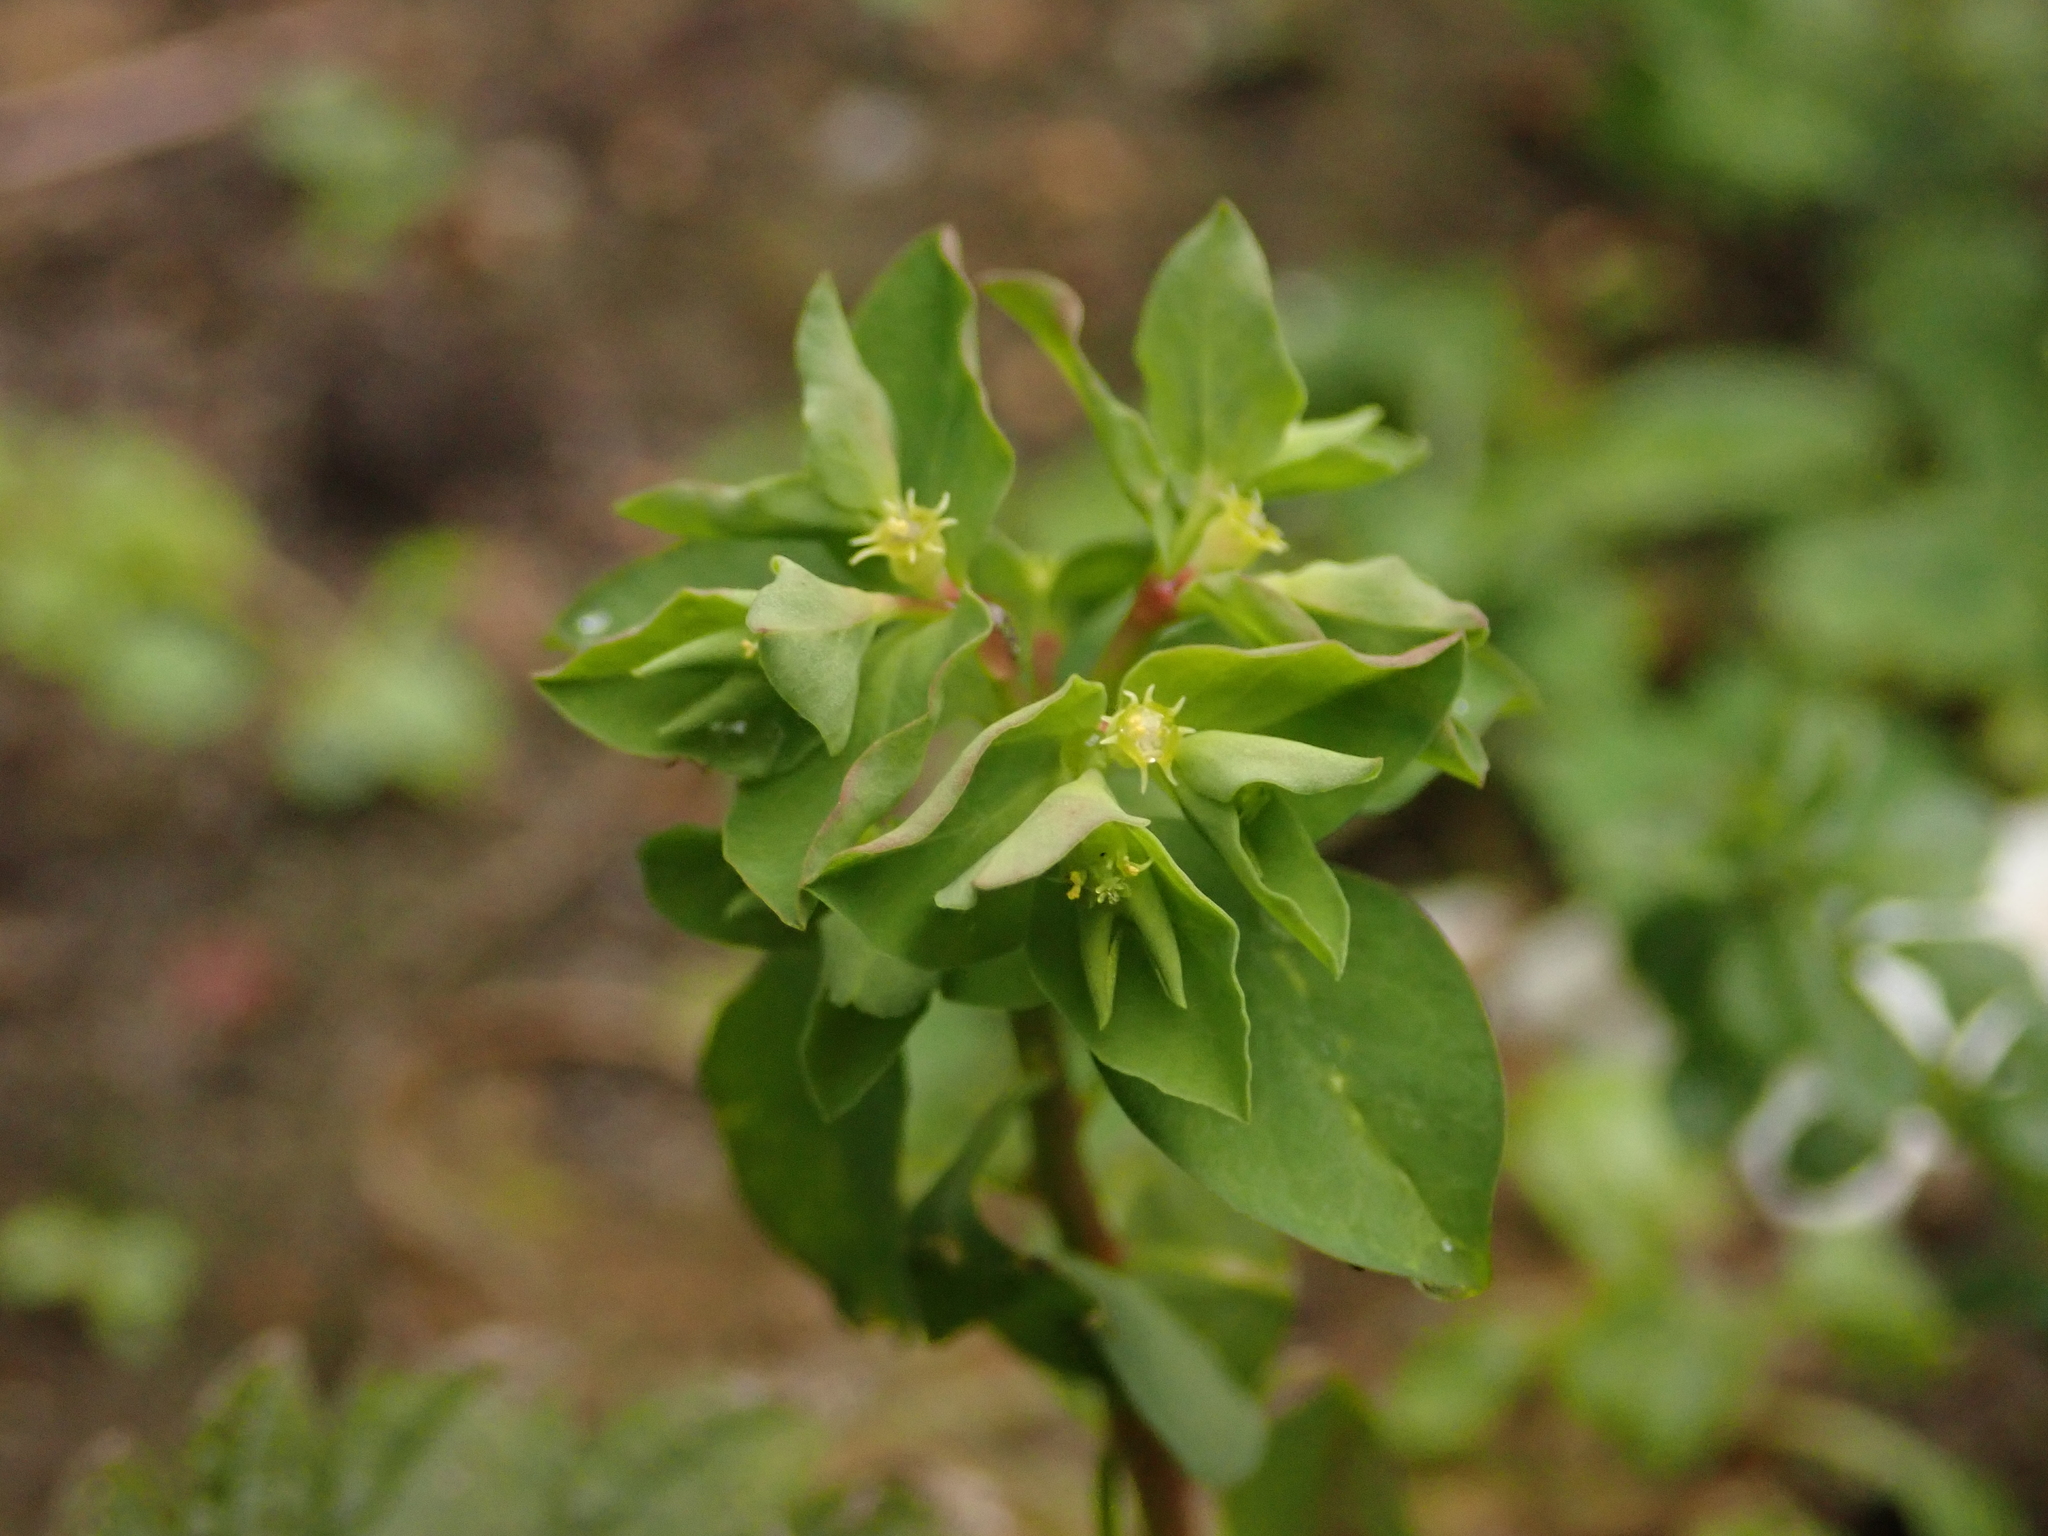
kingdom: Plantae
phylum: Tracheophyta
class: Magnoliopsida
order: Malpighiales
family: Euphorbiaceae
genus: Euphorbia
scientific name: Euphorbia peplus
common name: Petty spurge
